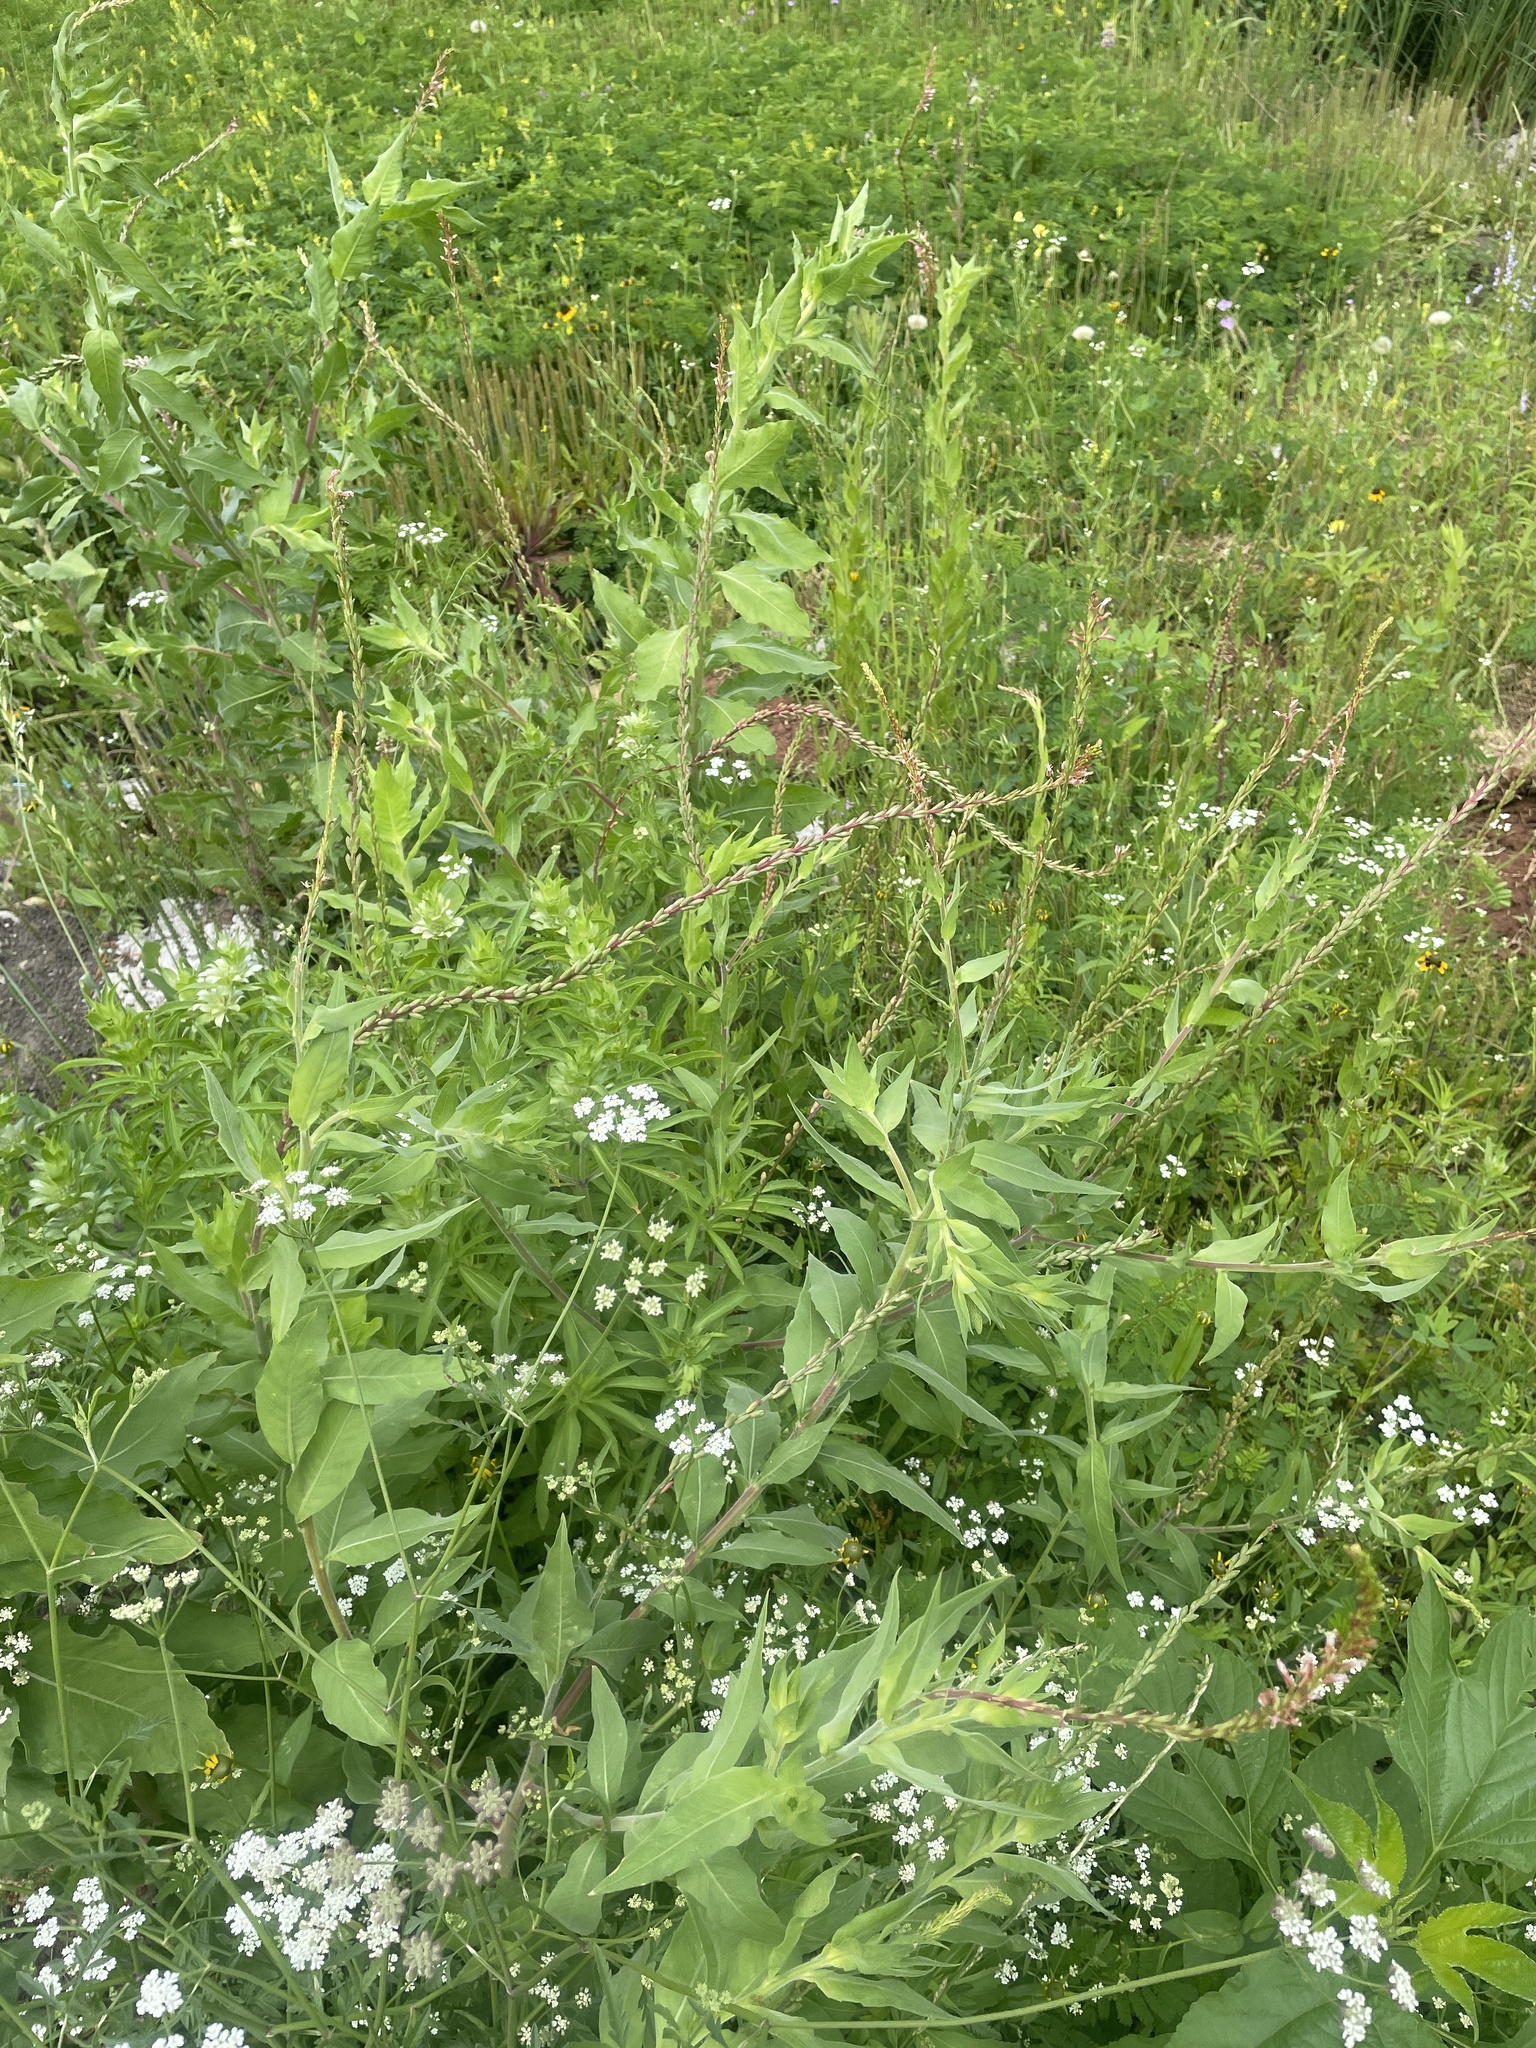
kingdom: Plantae
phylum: Tracheophyta
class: Magnoliopsida
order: Myrtales
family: Onagraceae
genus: Oenothera
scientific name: Oenothera curtiflora
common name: Velvetweed
